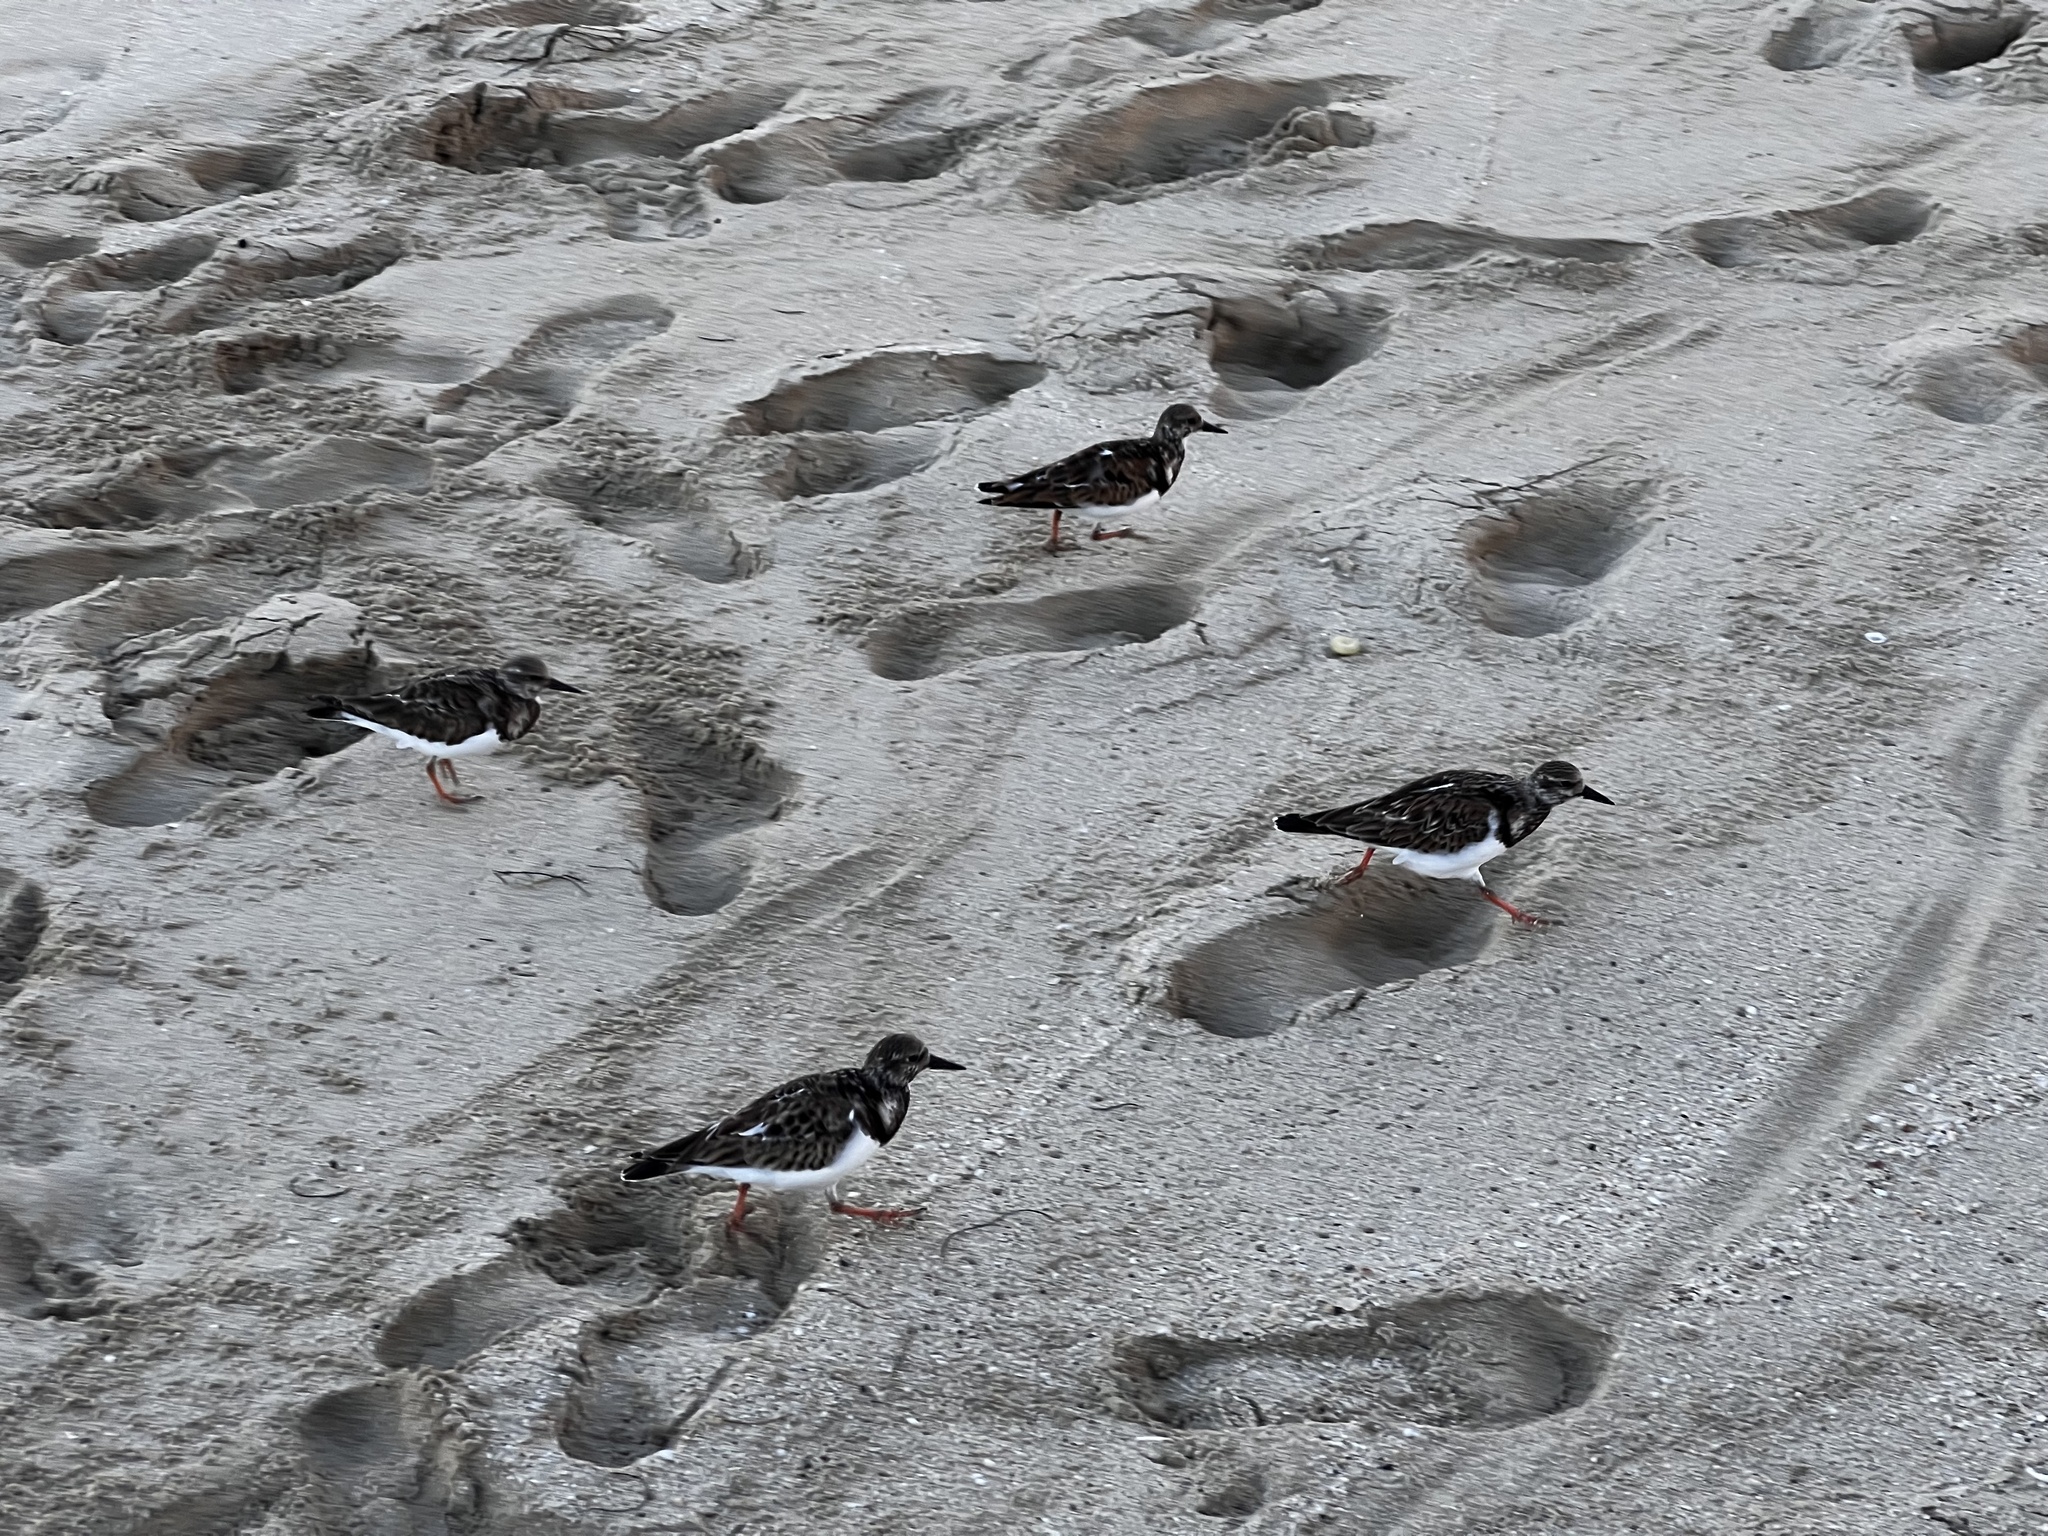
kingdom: Animalia
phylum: Chordata
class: Aves
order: Charadriiformes
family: Scolopacidae
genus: Arenaria
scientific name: Arenaria interpres
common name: Ruddy turnstone
